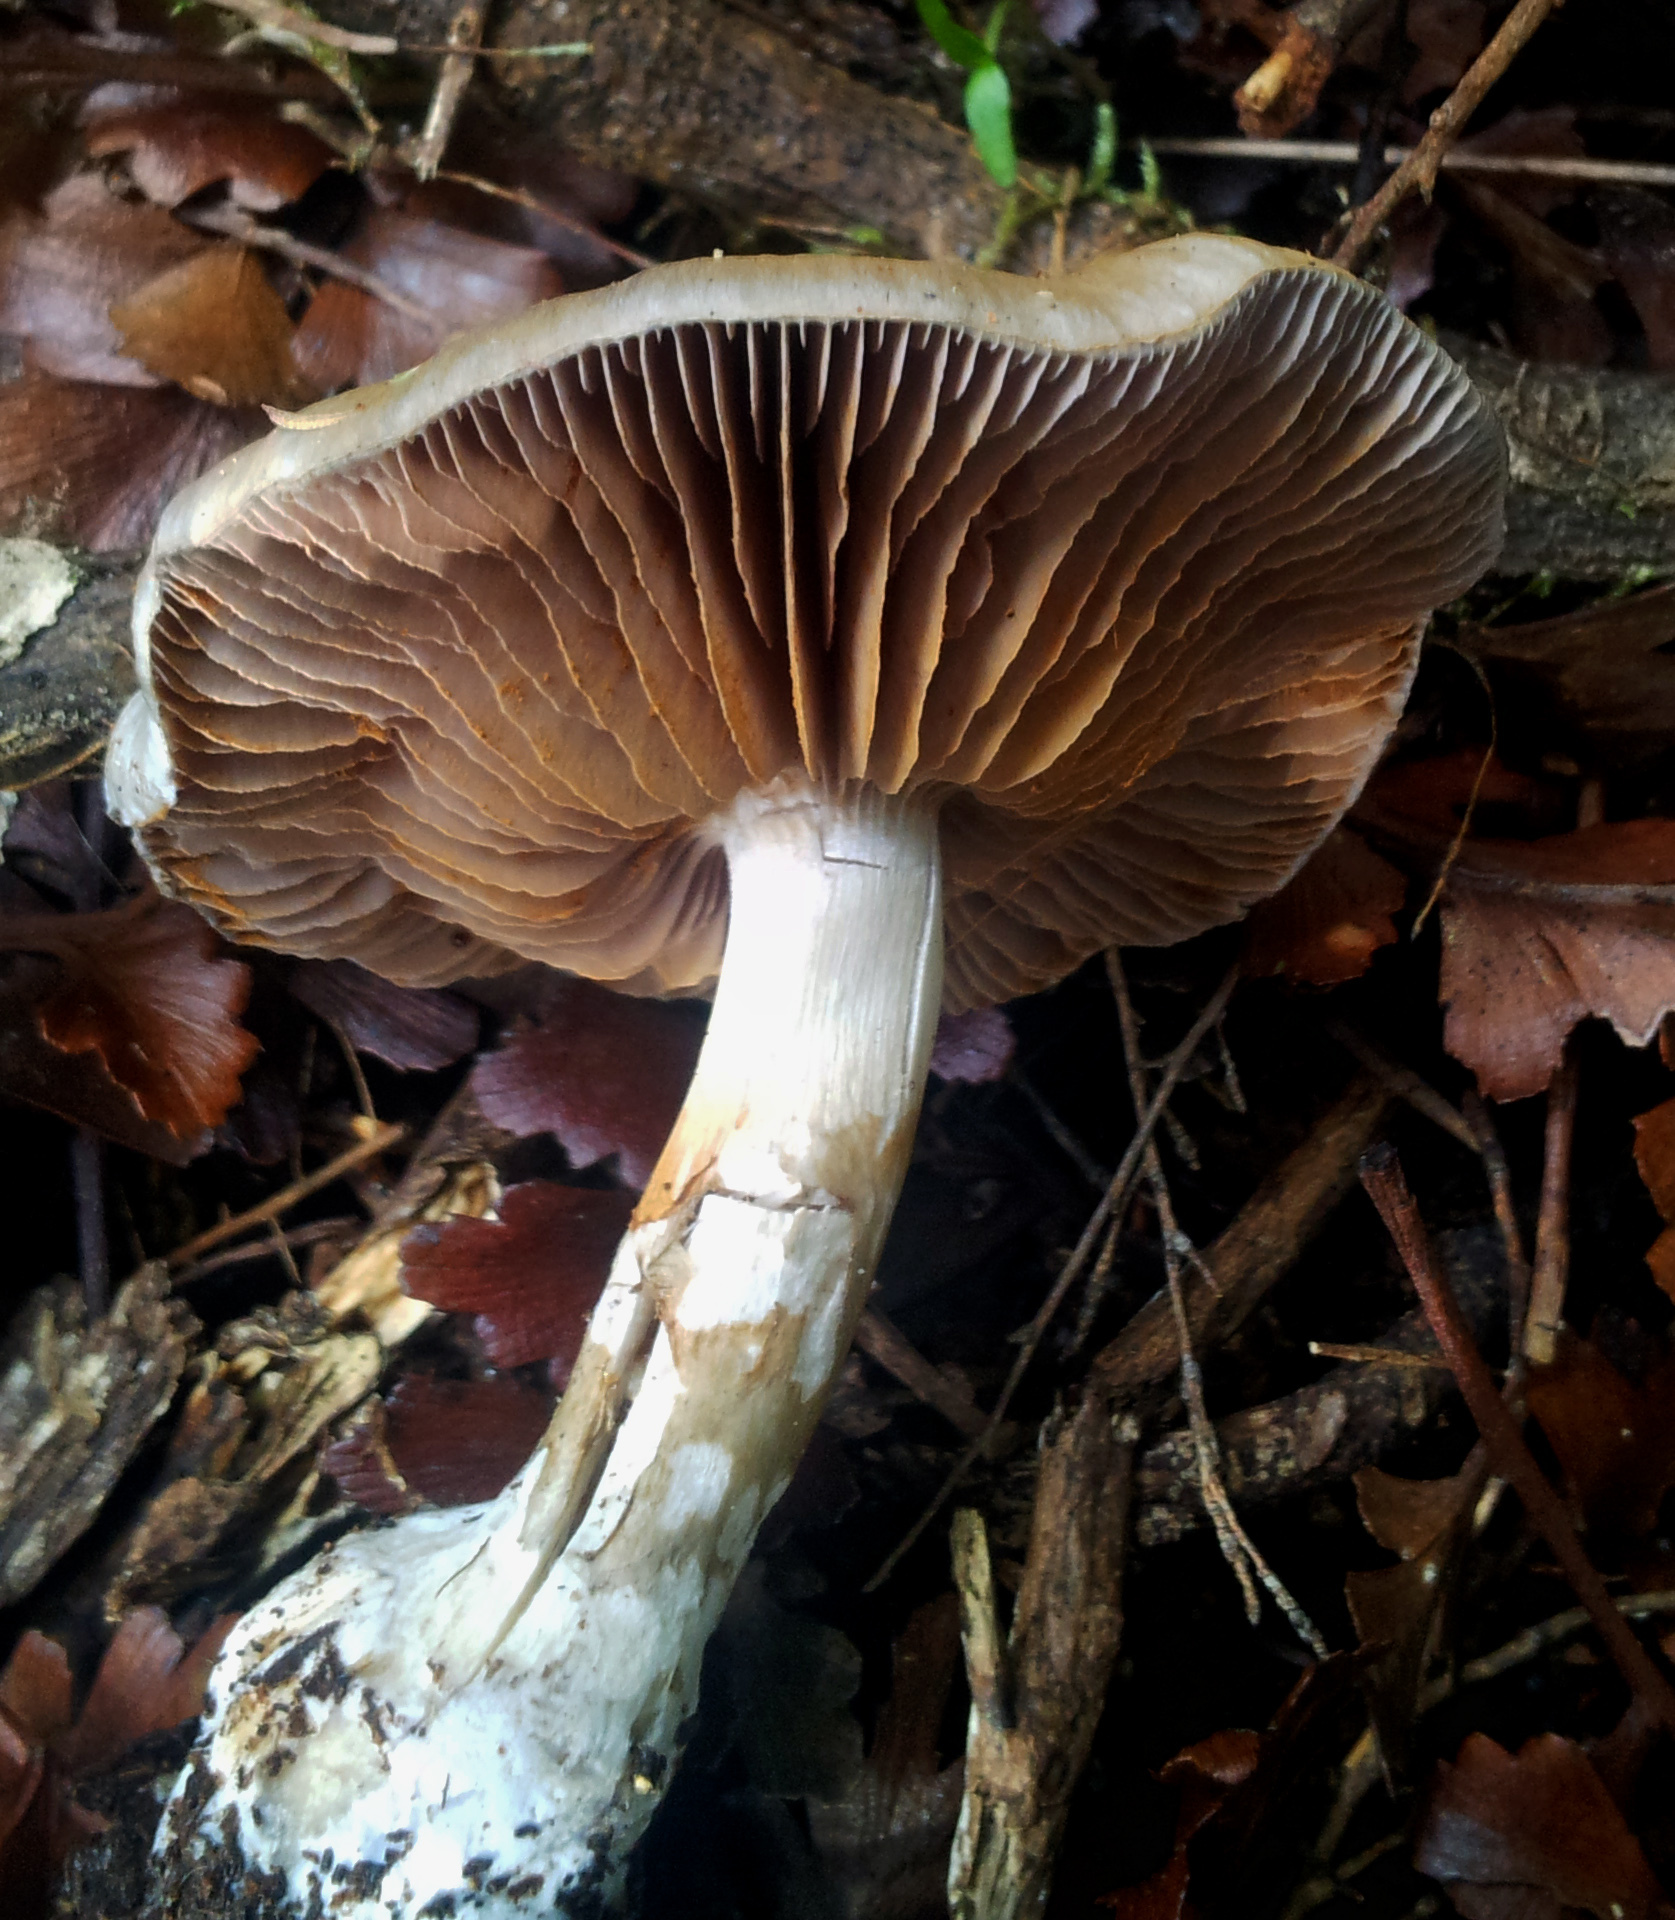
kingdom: Fungi
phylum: Basidiomycota
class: Agaricomycetes
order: Agaricales
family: Cortinariaceae
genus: Cortinarius
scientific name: Cortinarius rotundisporus
